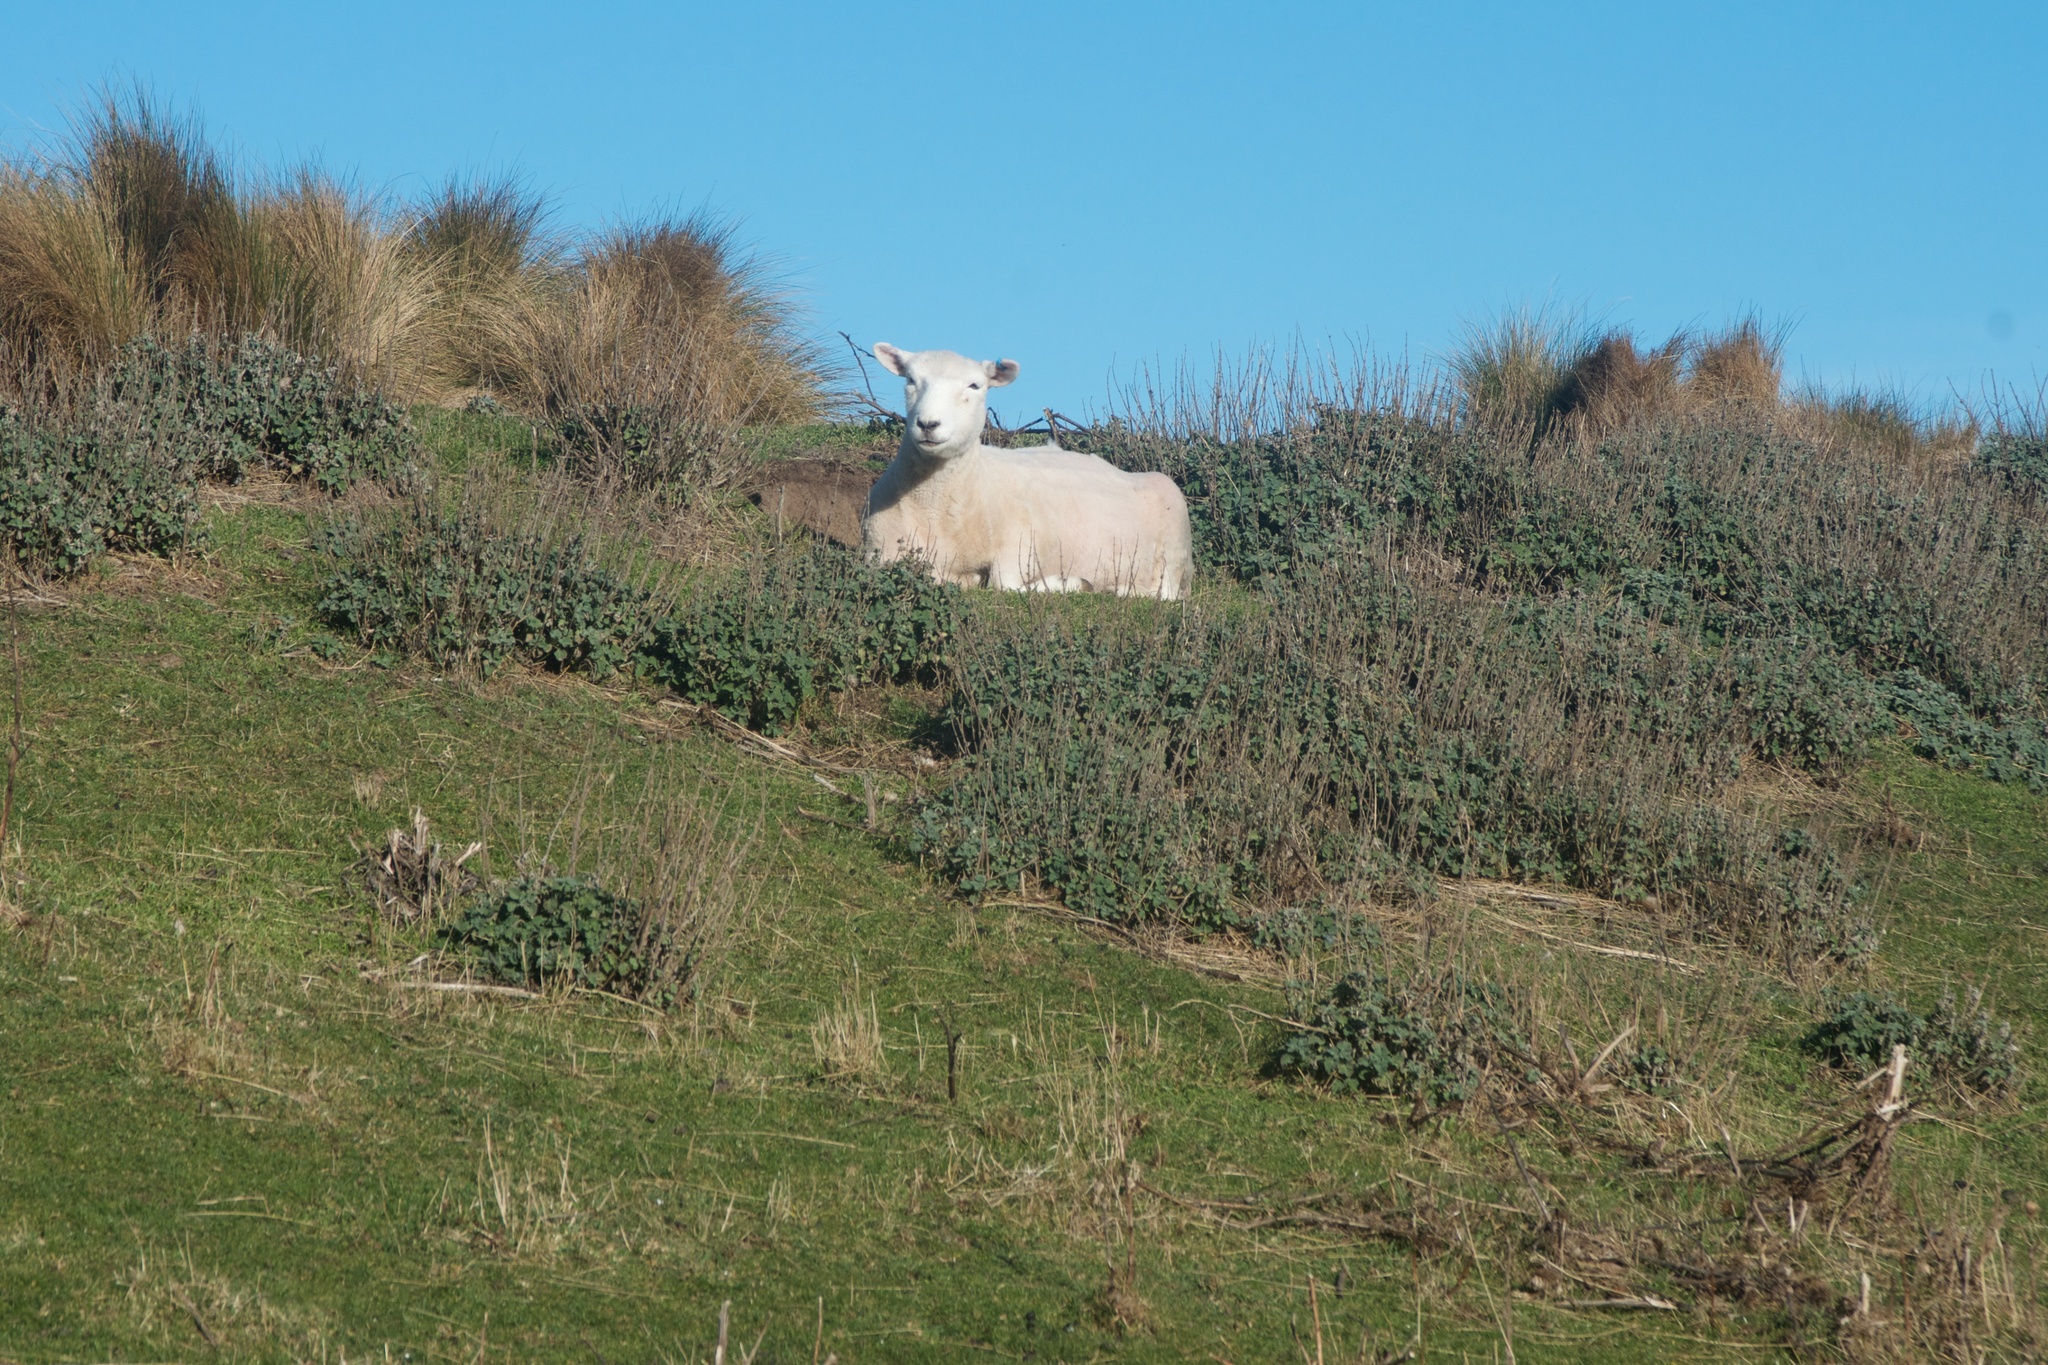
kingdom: Plantae
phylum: Tracheophyta
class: Magnoliopsida
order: Lamiales
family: Lamiaceae
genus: Marrubium
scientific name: Marrubium vulgare
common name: Horehound
